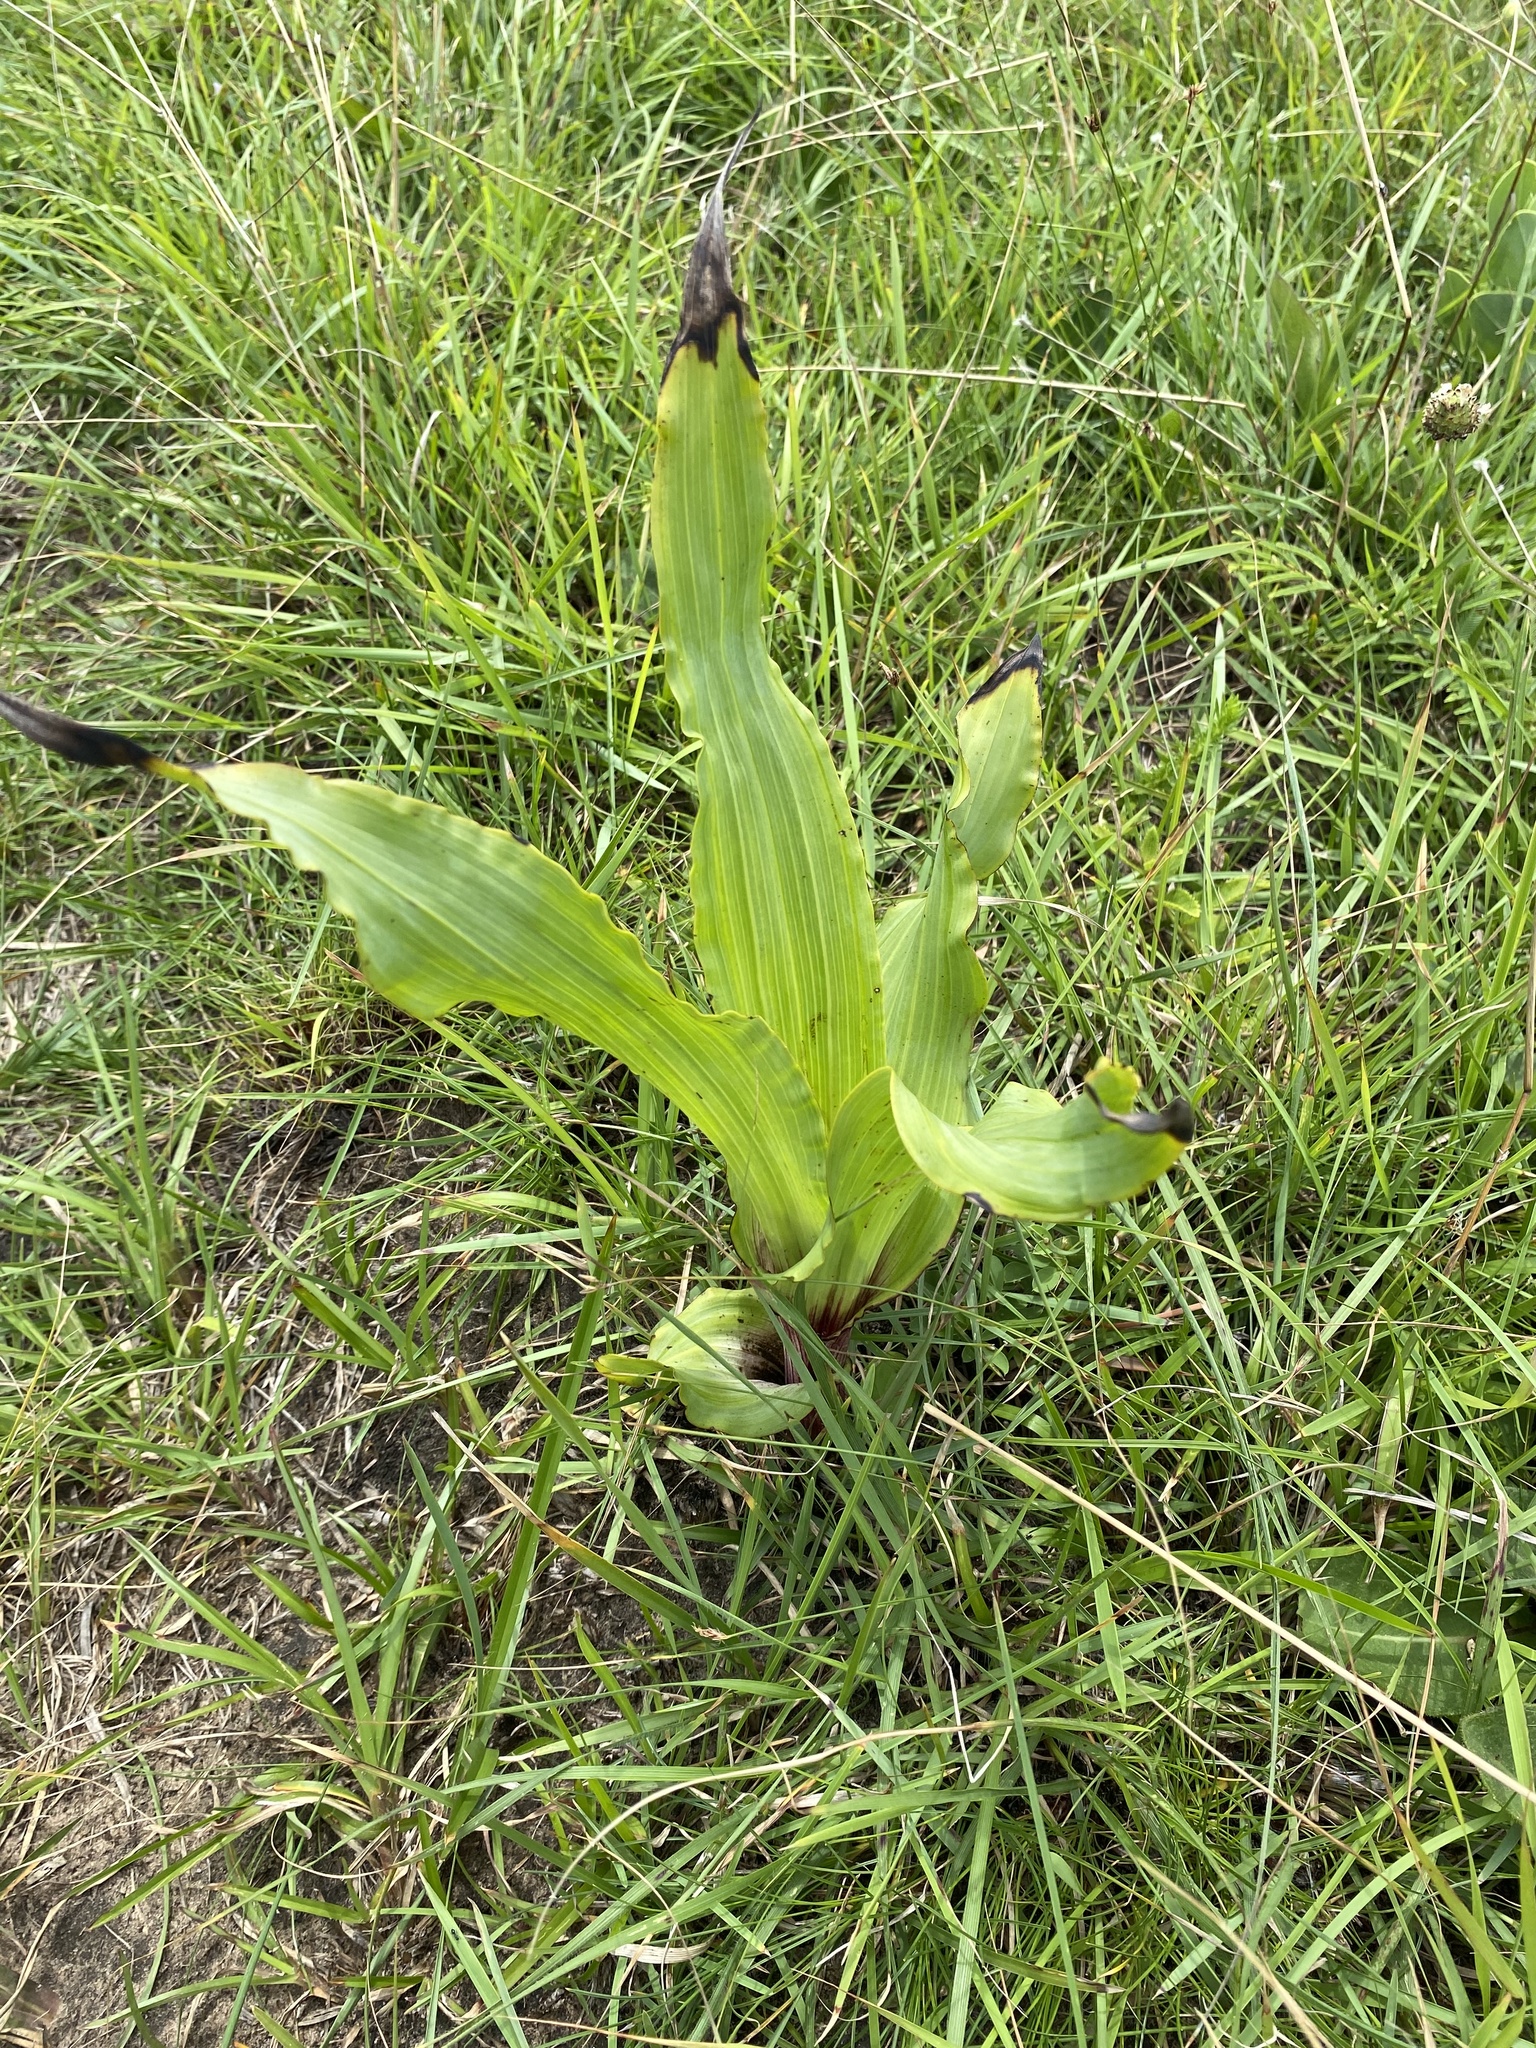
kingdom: Plantae
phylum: Tracheophyta
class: Liliopsida
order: Asparagales
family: Hypoxidaceae
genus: Hypoxis
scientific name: Hypoxis colchicifolia
